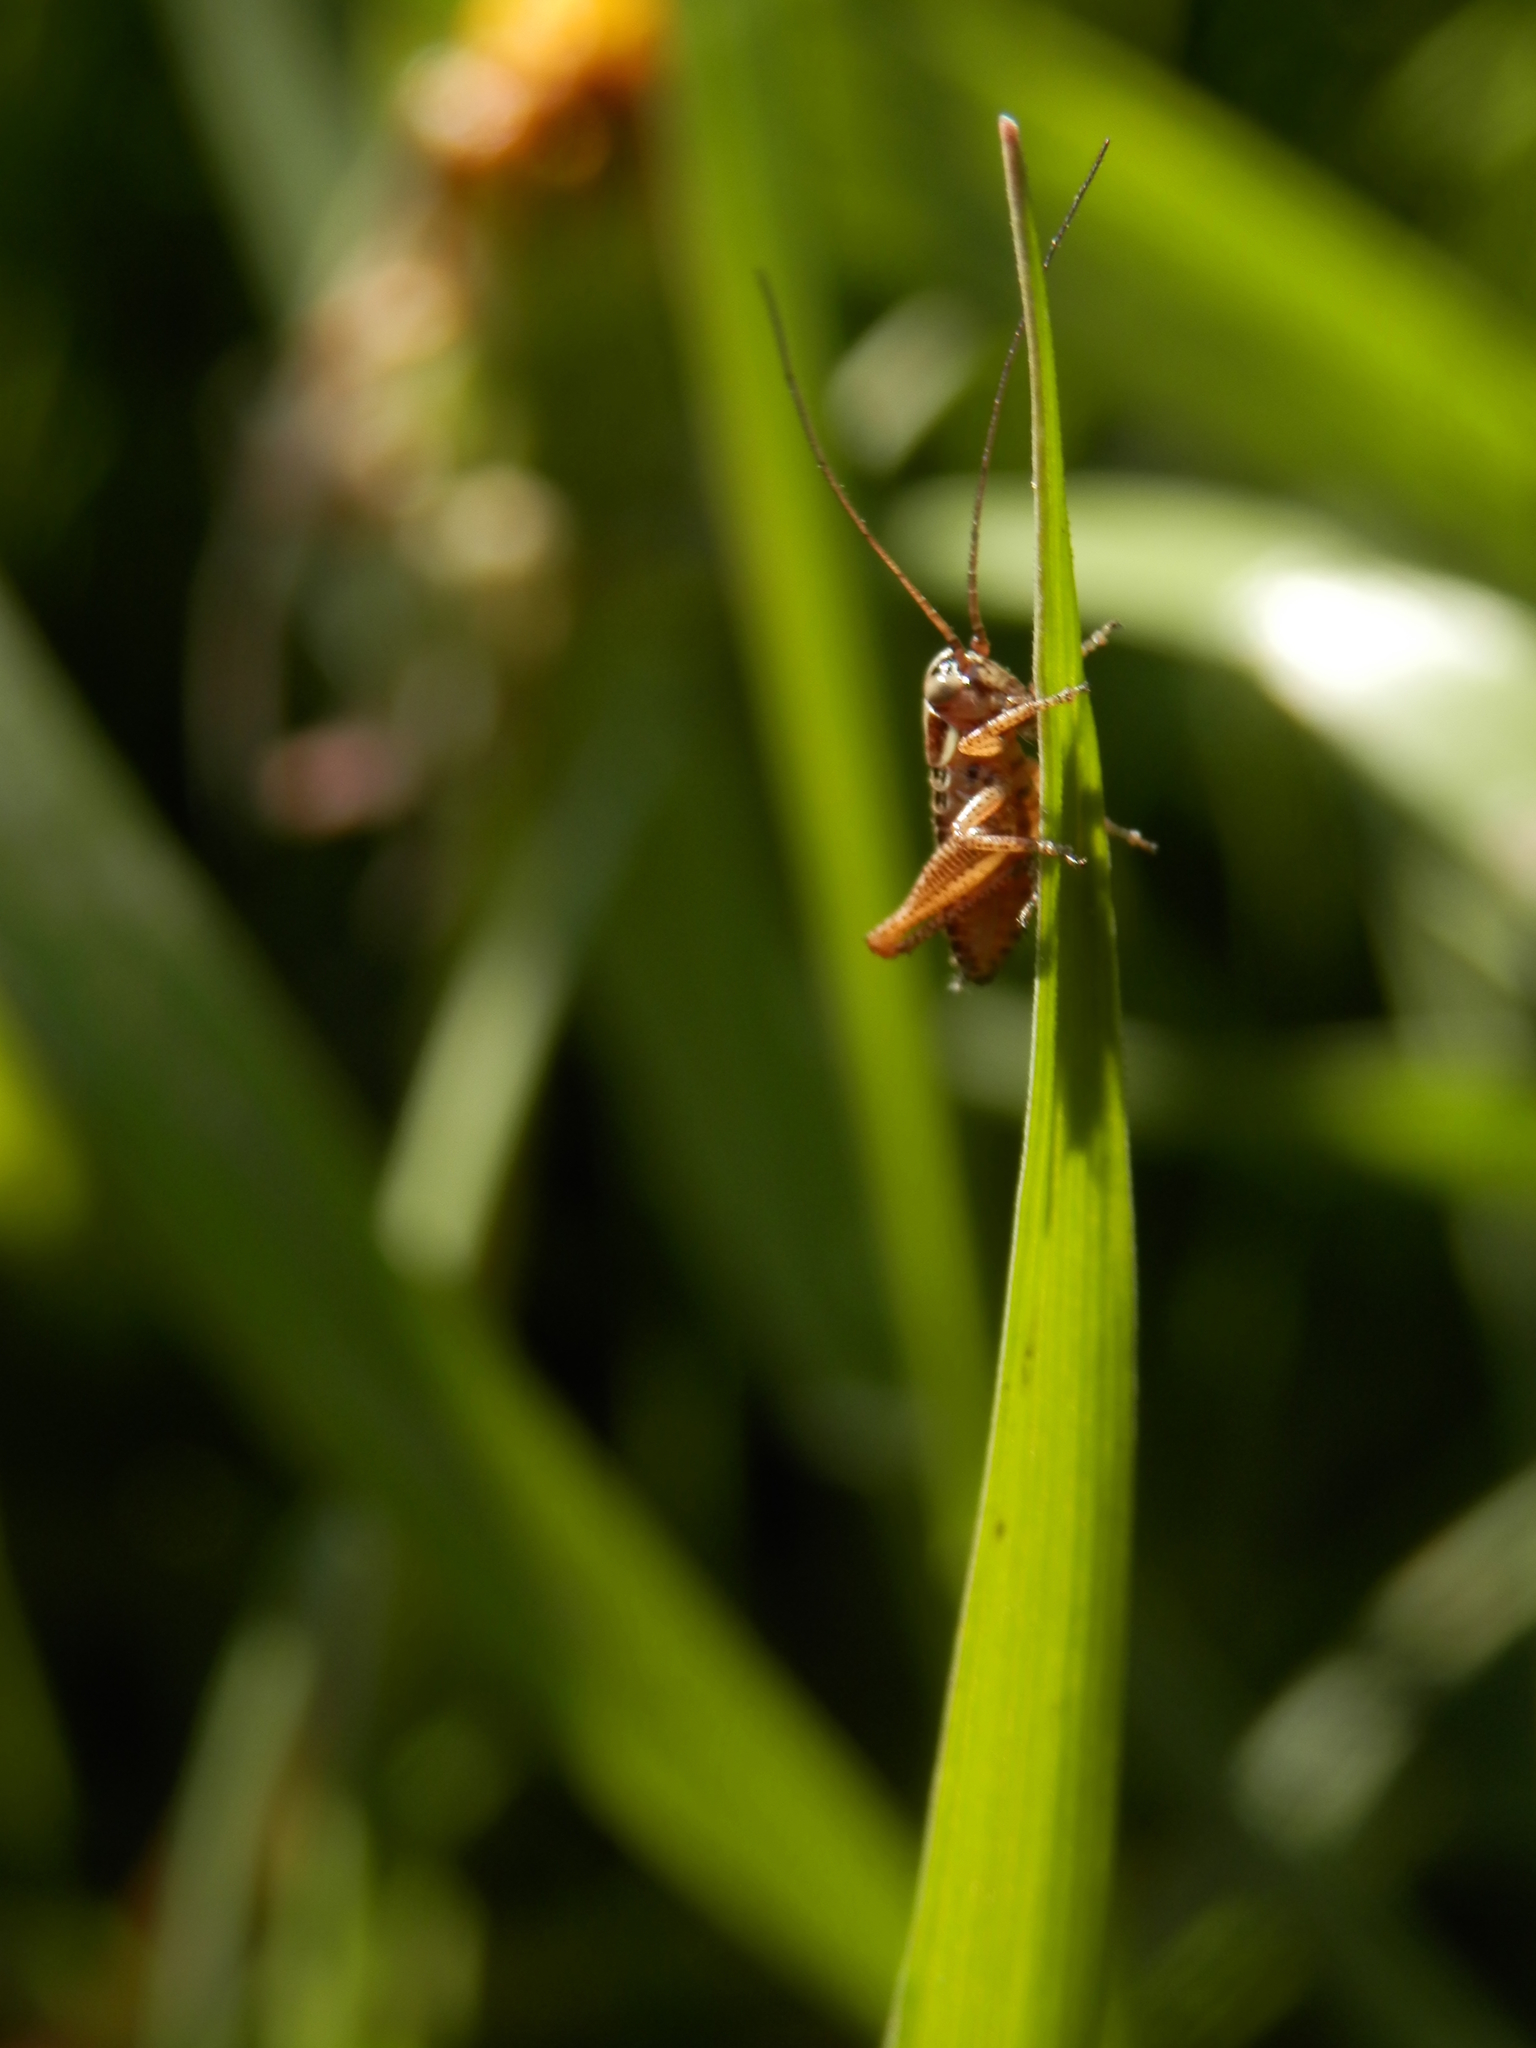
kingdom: Animalia
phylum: Arthropoda
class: Insecta
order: Orthoptera
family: Tettigoniidae
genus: Roeseliana
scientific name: Roeseliana roeselii
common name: Roesel's bush cricket
